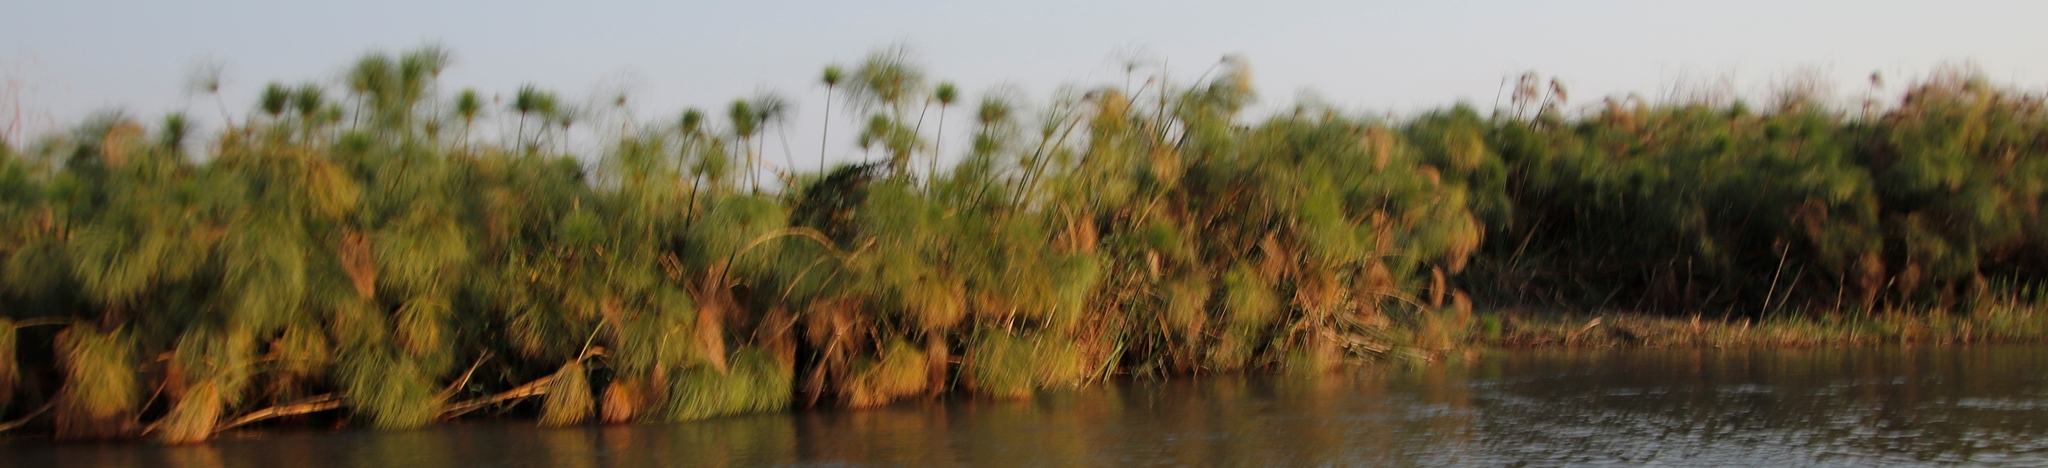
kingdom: Plantae
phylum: Tracheophyta
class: Liliopsida
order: Poales
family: Cyperaceae
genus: Cyperus
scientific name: Cyperus papyrus
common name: Papyrus
